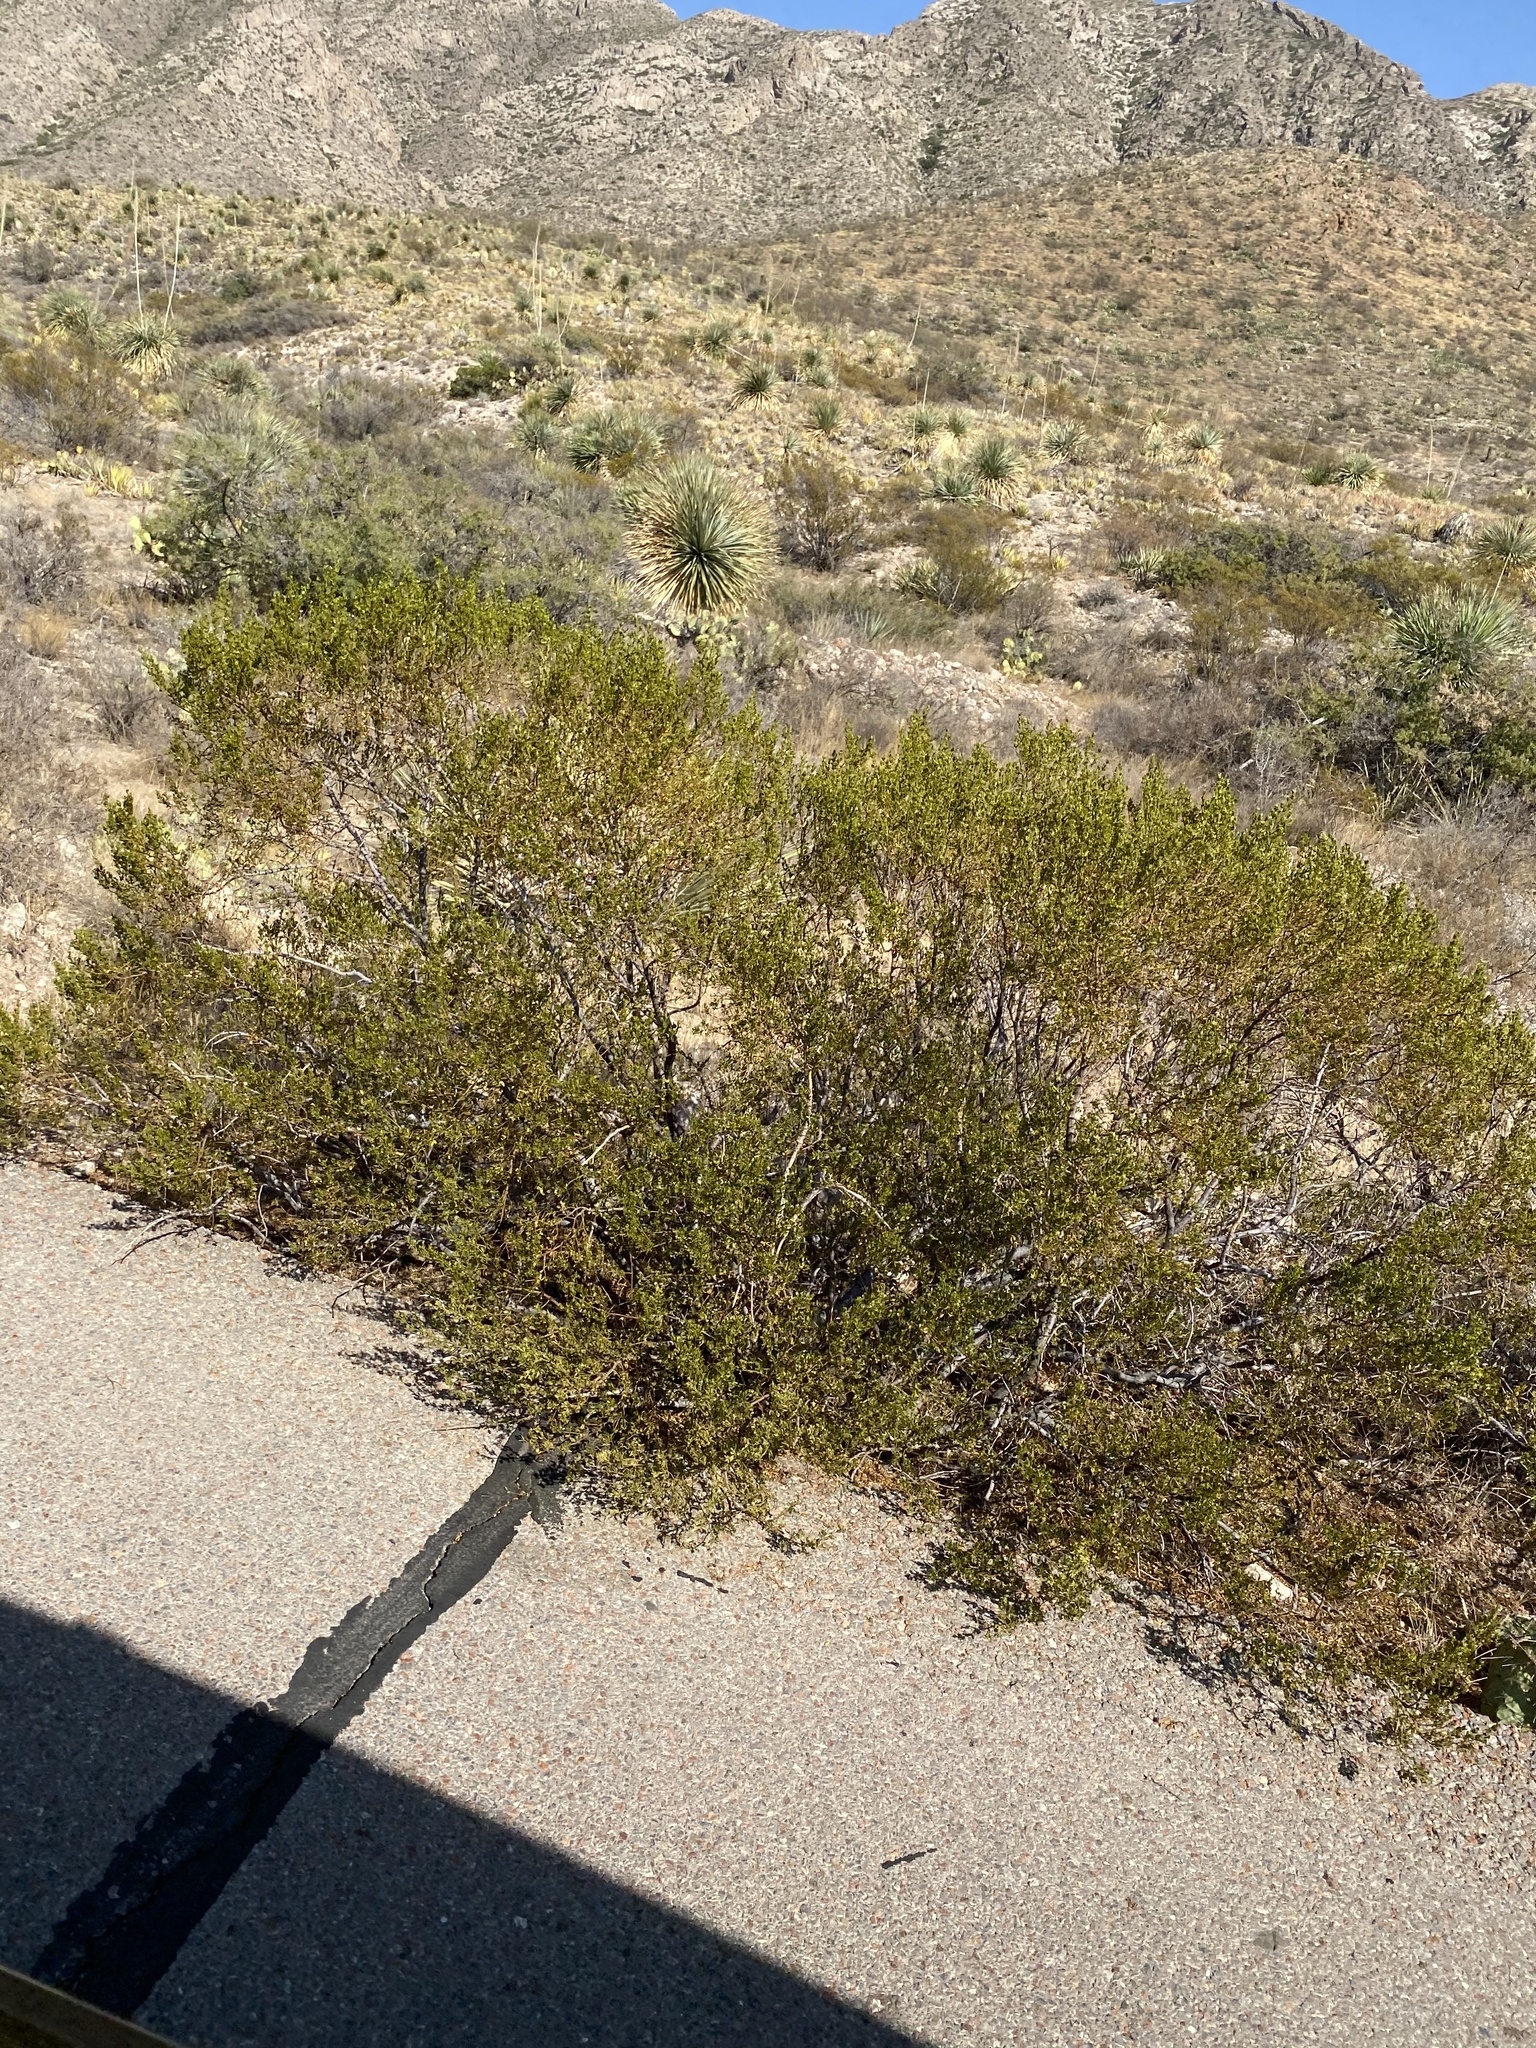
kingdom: Plantae
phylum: Tracheophyta
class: Magnoliopsida
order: Zygophyllales
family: Zygophyllaceae
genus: Larrea
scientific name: Larrea tridentata
